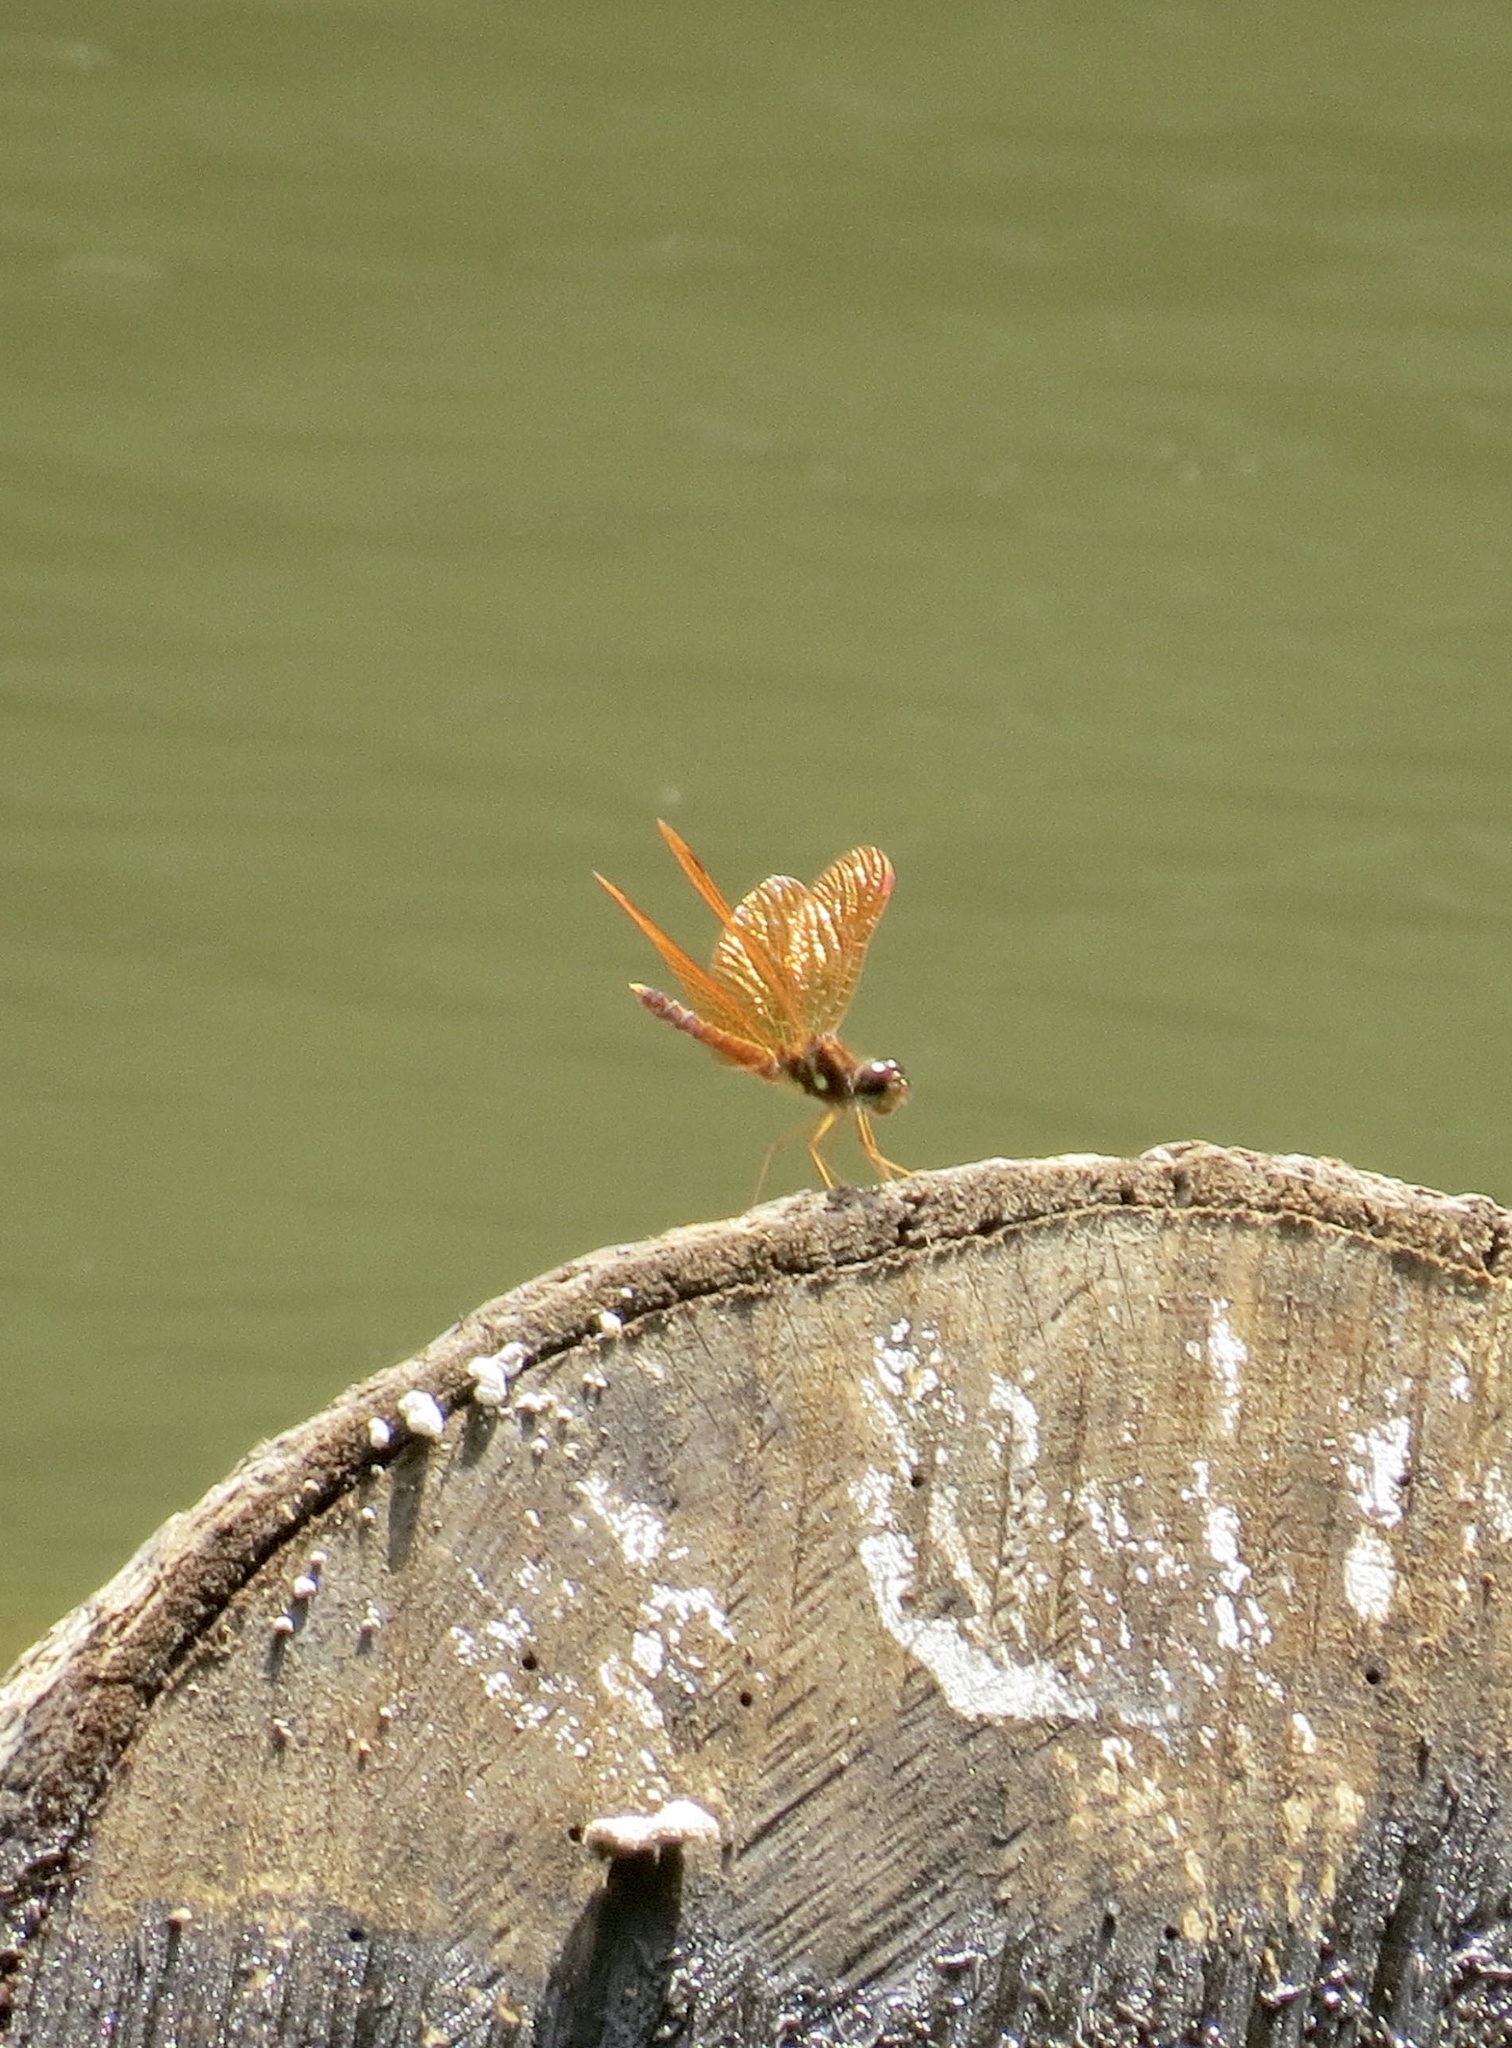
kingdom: Animalia
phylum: Arthropoda
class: Insecta
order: Odonata
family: Libellulidae
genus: Perithemis
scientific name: Perithemis tenera
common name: Eastern amberwing
